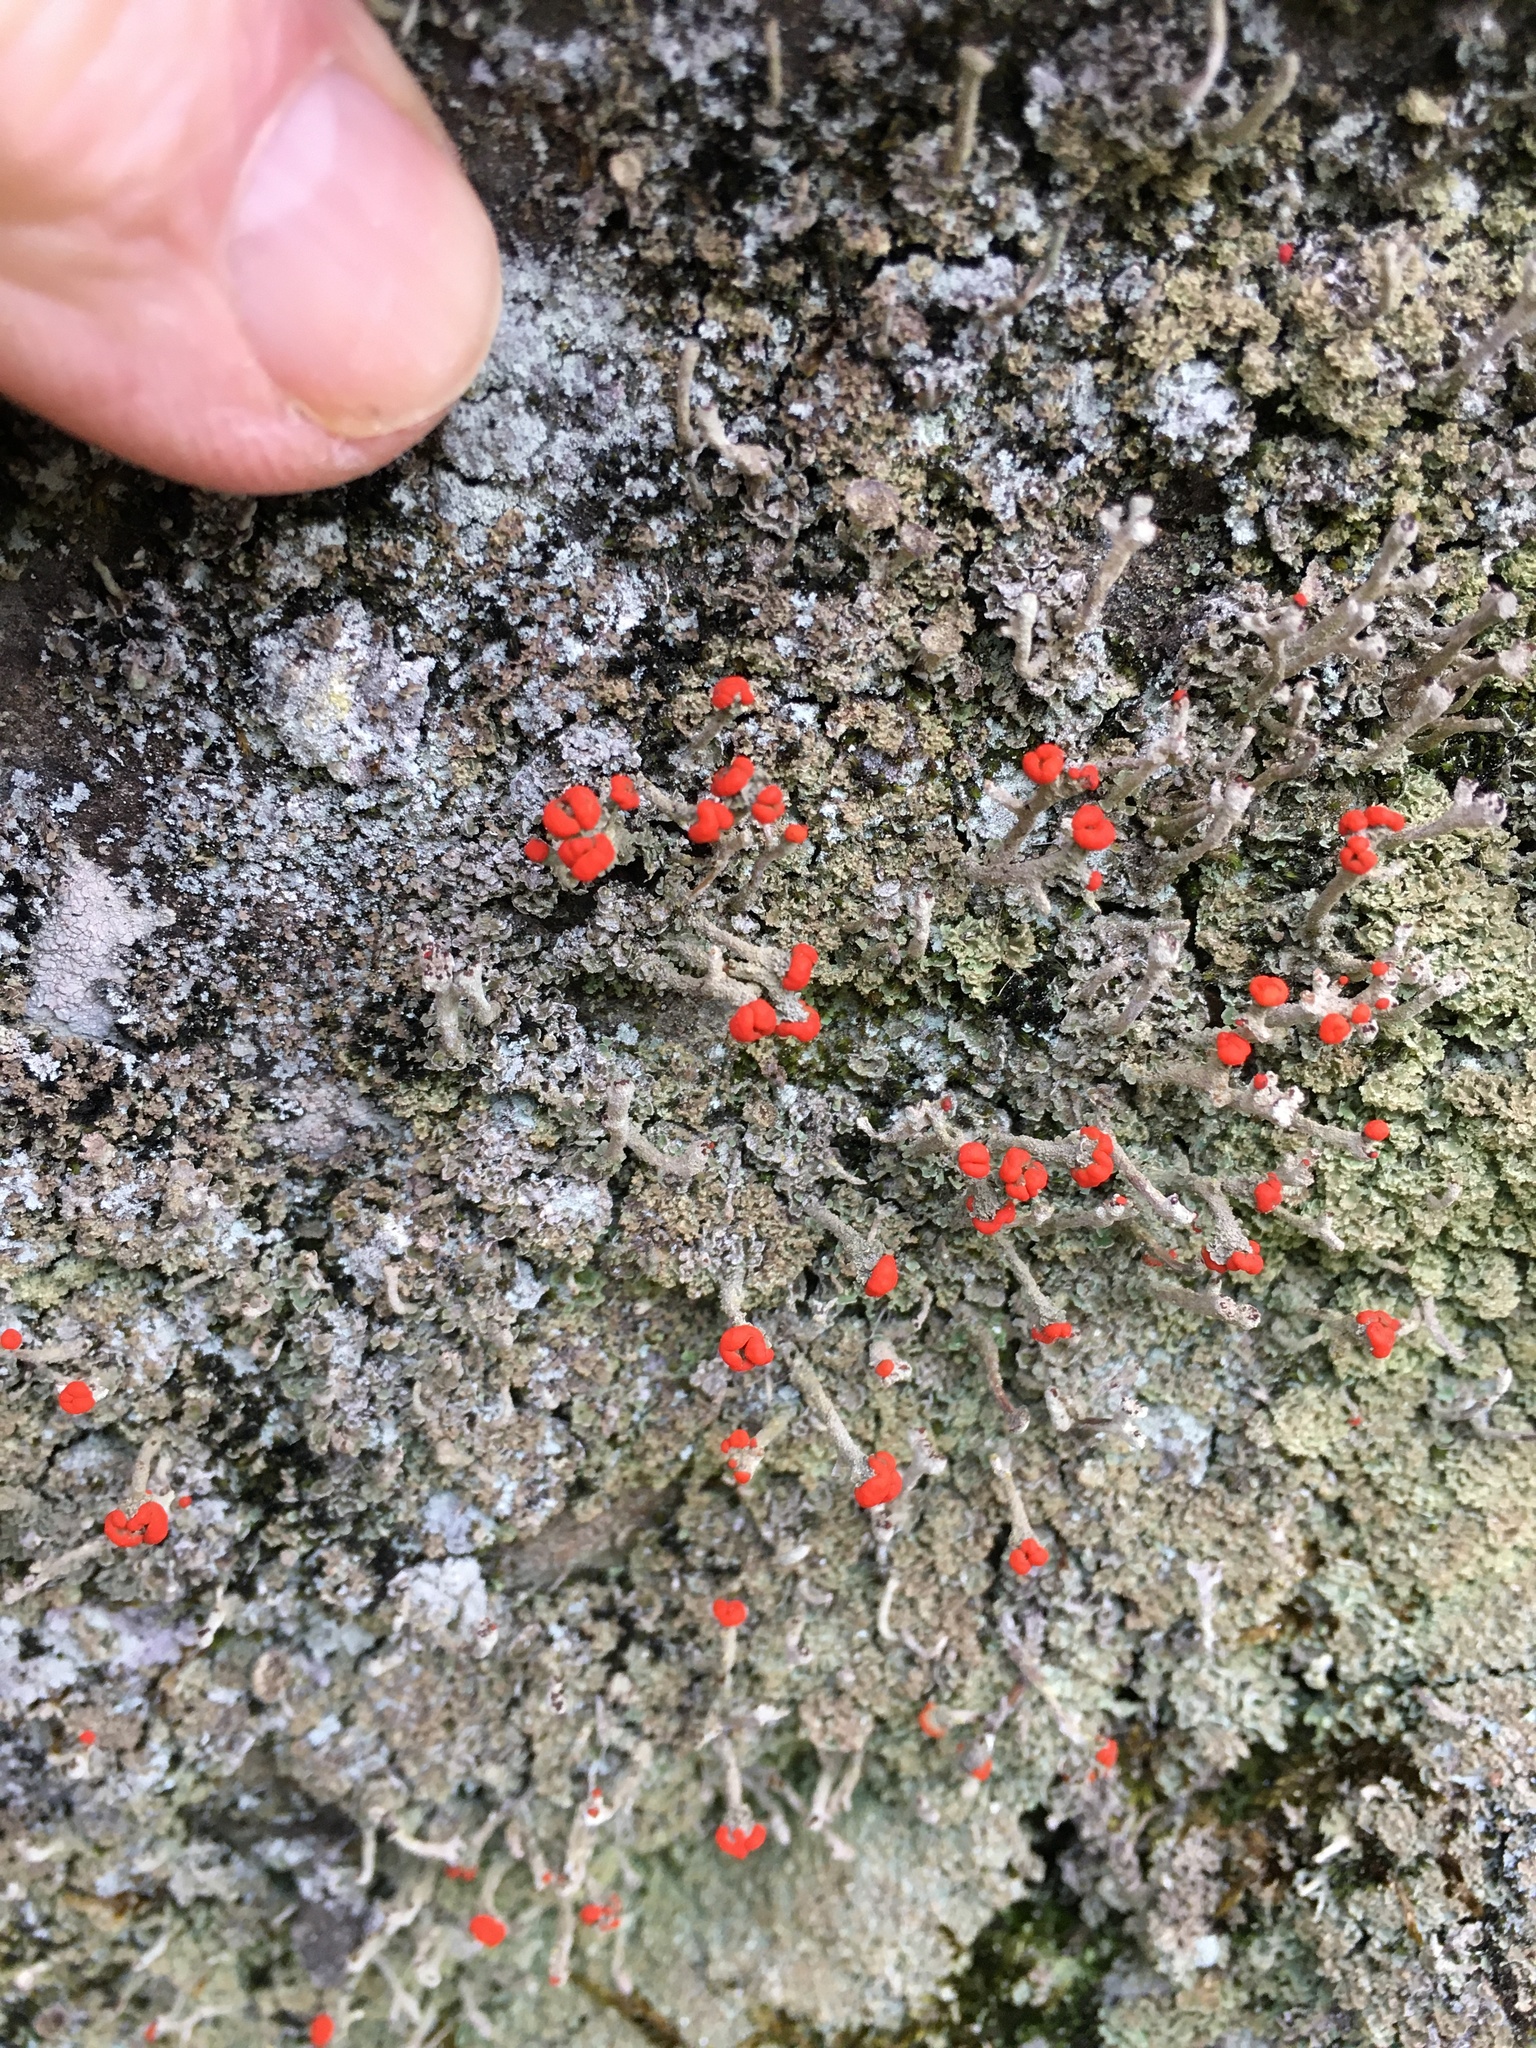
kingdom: Fungi
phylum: Ascomycota
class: Lecanoromycetes
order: Lecanorales
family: Cladoniaceae
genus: Cladonia
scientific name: Cladonia floerkeana
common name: Gritty british soldiers lichen
